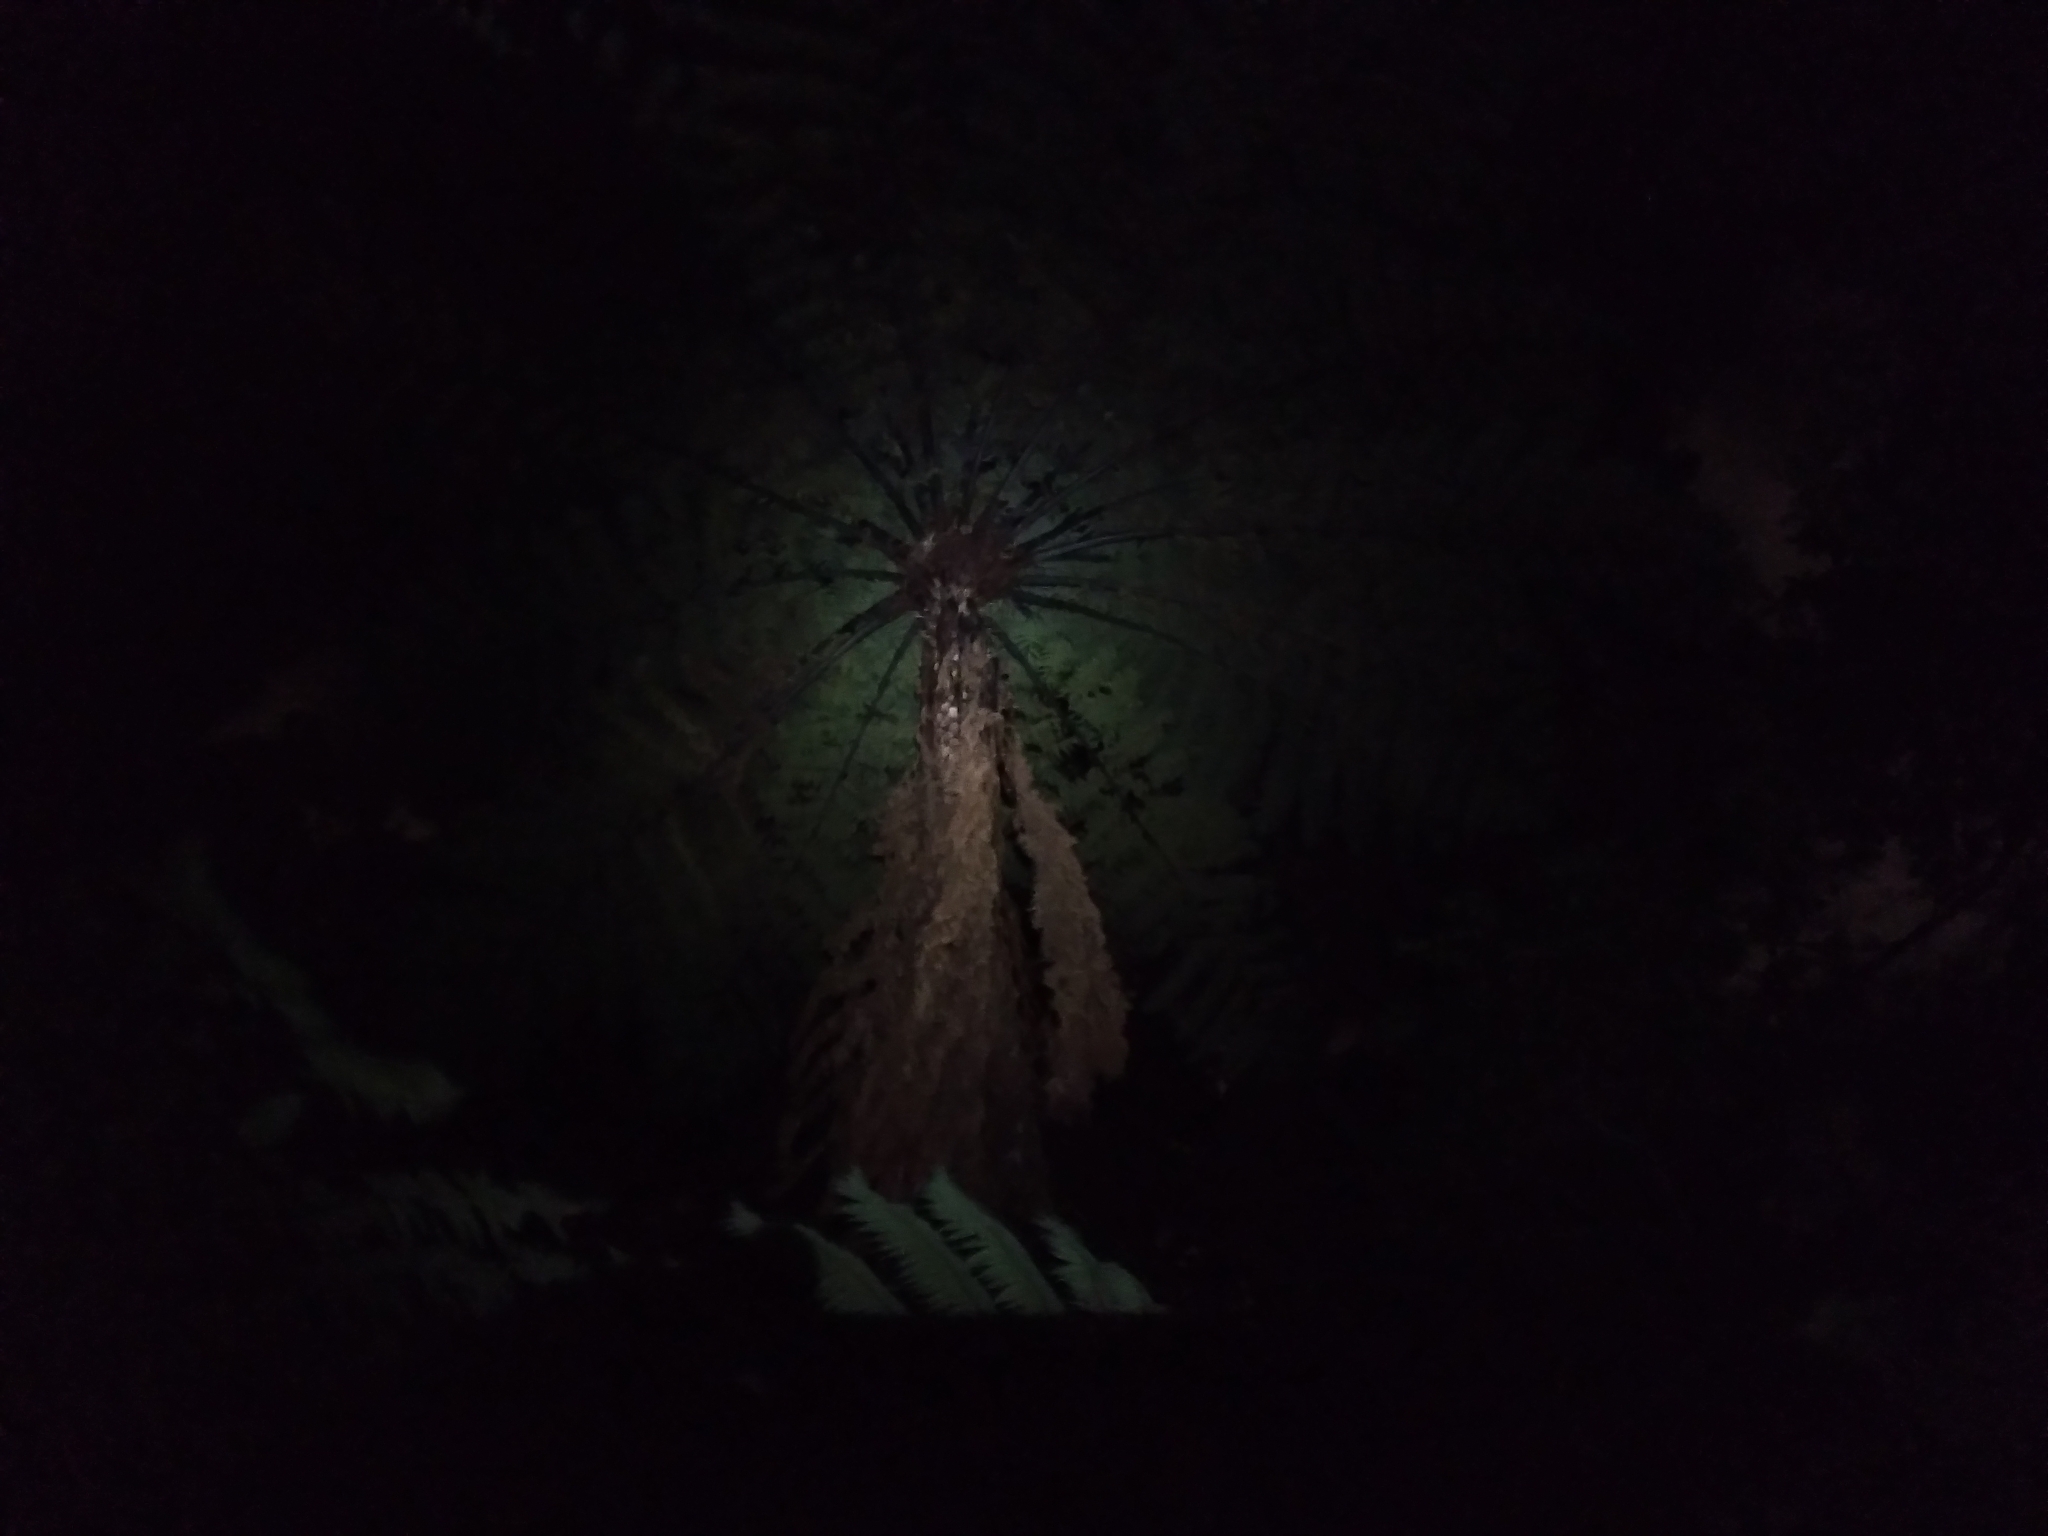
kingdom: Plantae
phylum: Tracheophyta
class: Polypodiopsida
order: Cyatheales
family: Cyatheaceae
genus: Sphaeropteris
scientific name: Sphaeropteris medullaris
